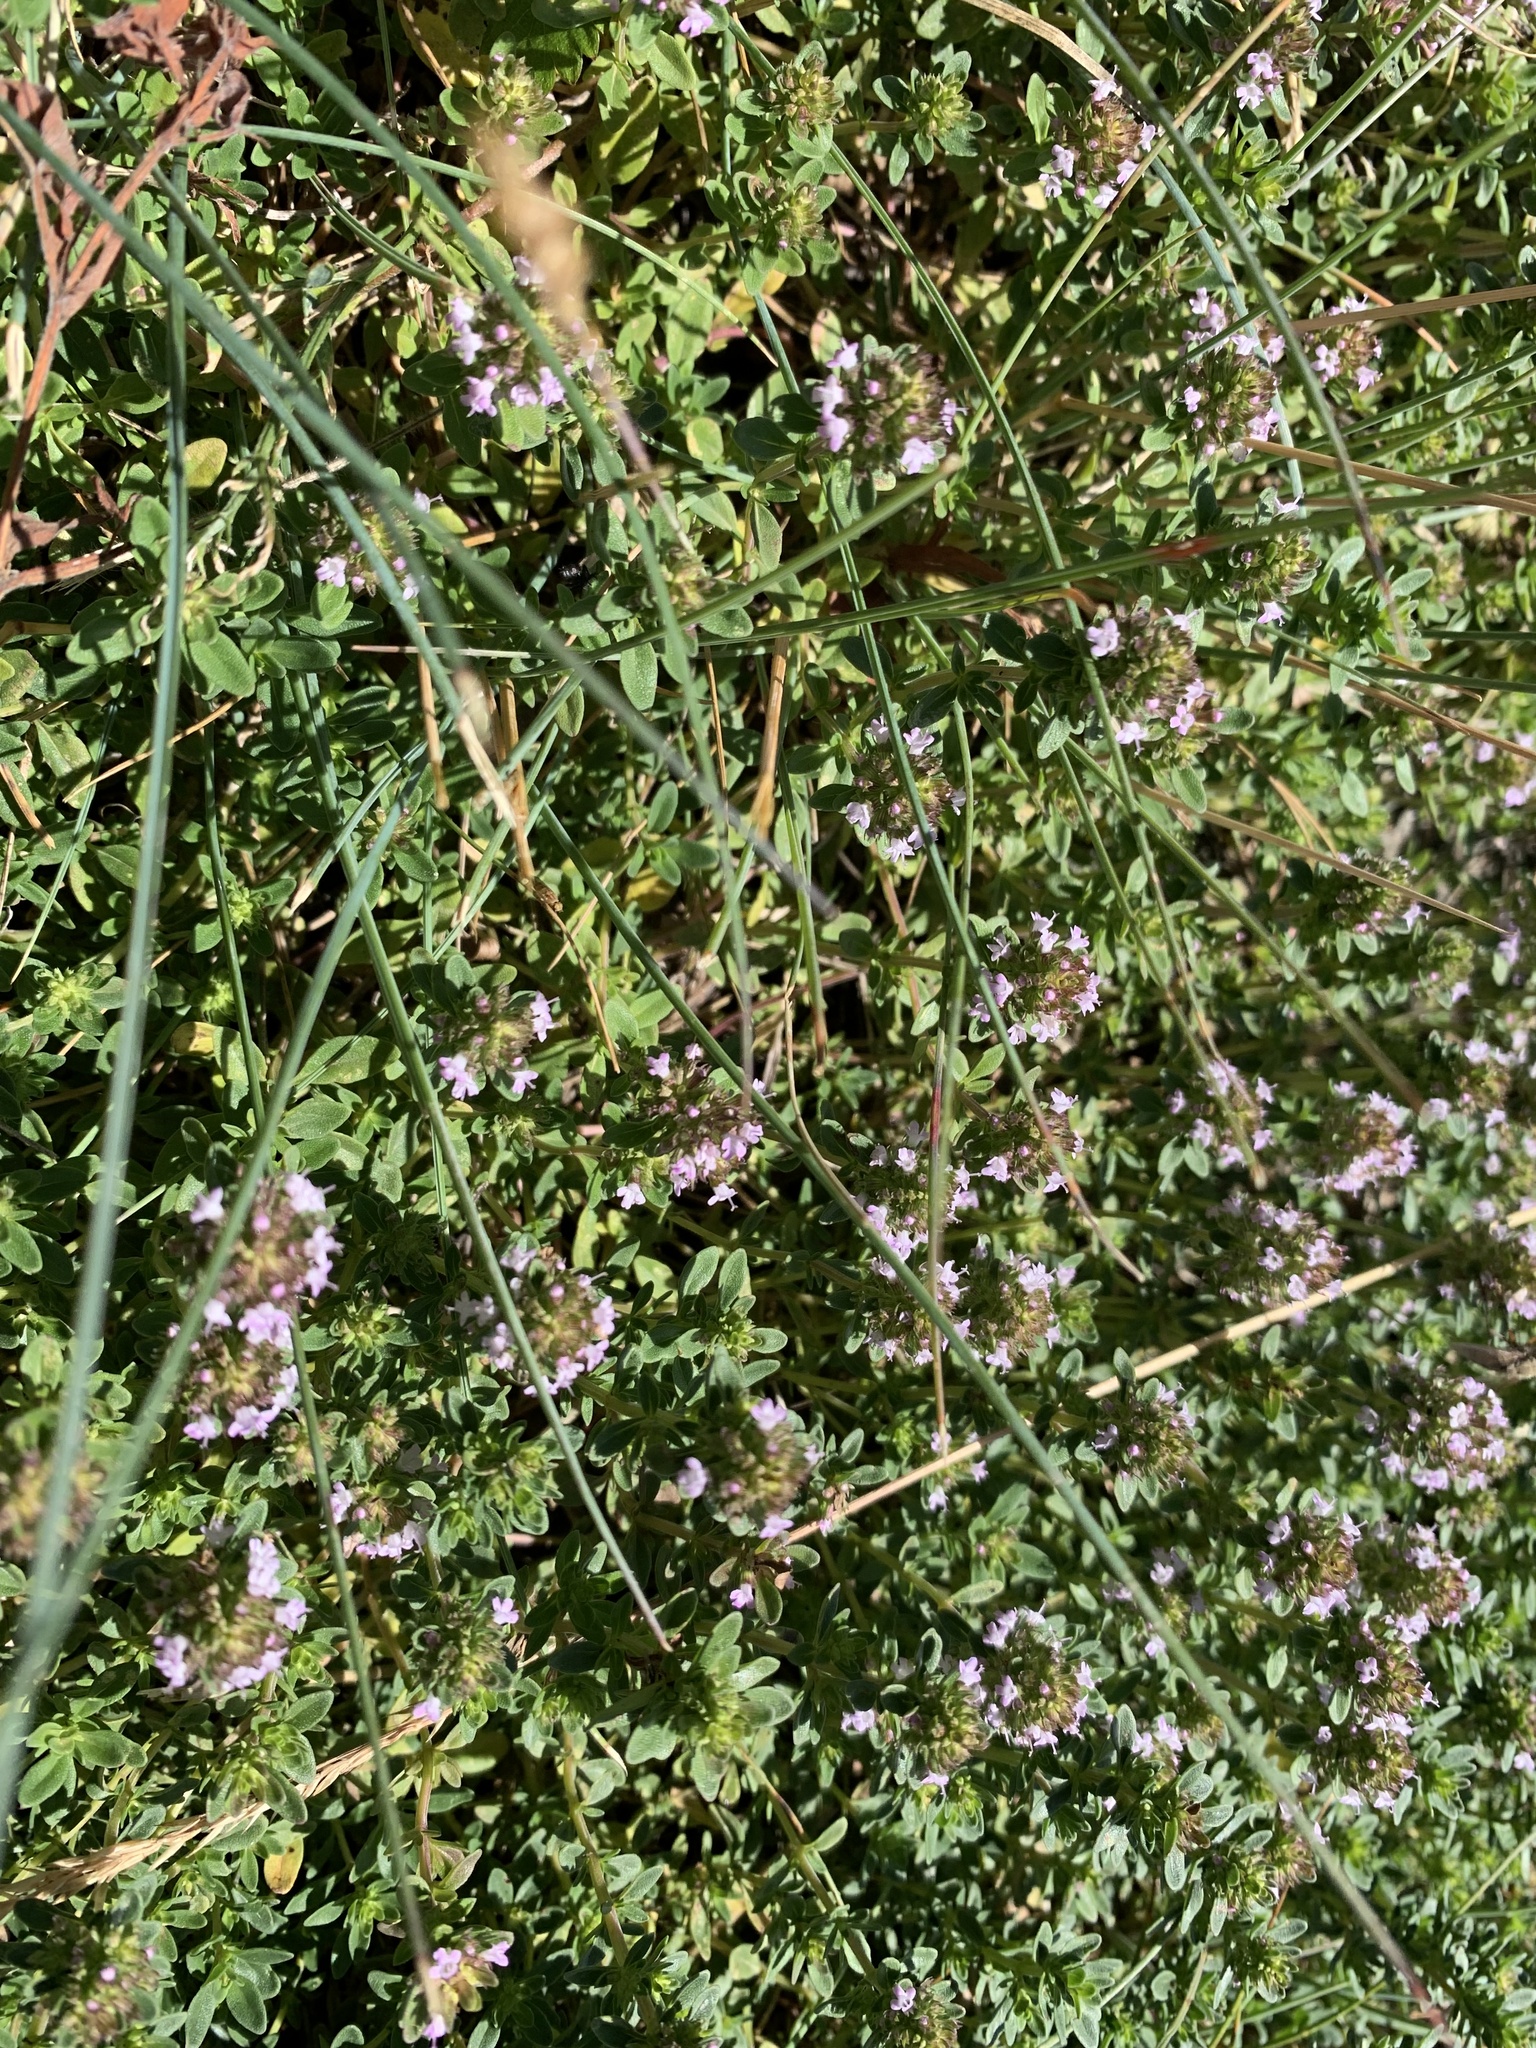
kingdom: Plantae
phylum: Tracheophyta
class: Magnoliopsida
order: Lamiales
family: Lamiaceae
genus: Thymus
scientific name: Thymus pulegioides
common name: Large thyme
